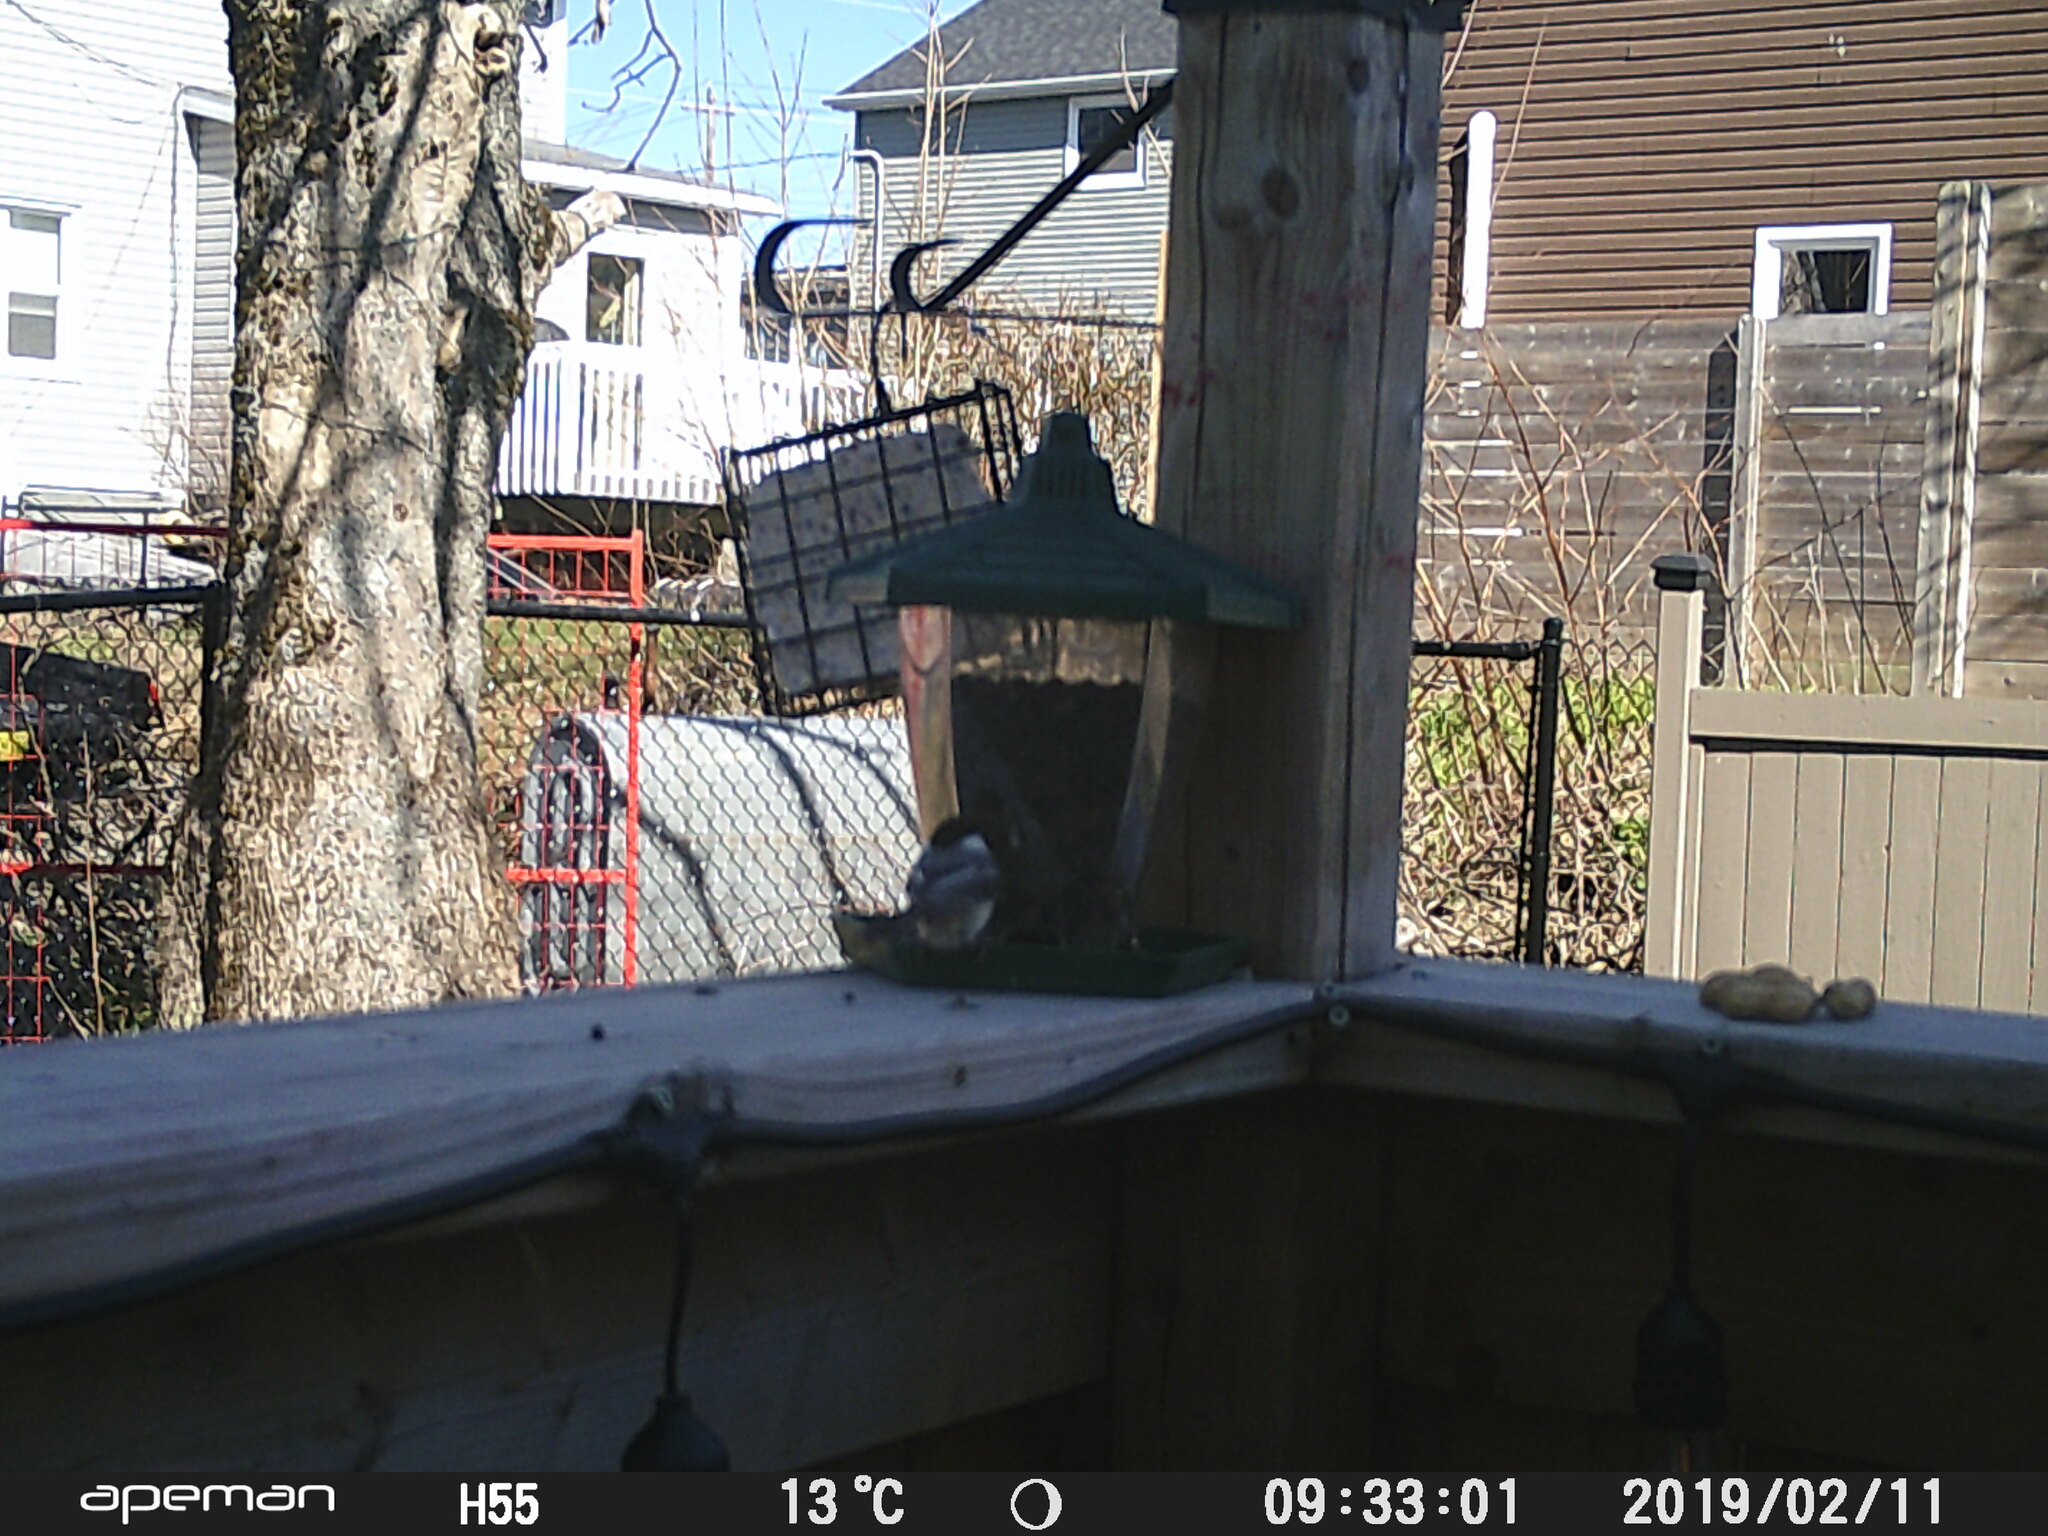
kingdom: Animalia
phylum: Chordata
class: Aves
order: Passeriformes
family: Paridae
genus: Poecile
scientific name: Poecile atricapillus
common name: Black-capped chickadee
